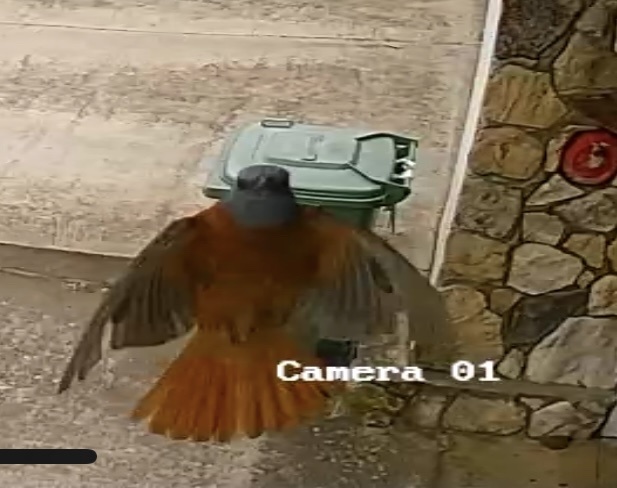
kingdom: Animalia
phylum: Chordata
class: Aves
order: Passeriformes
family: Muscicapidae
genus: Monticola
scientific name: Monticola rupestris
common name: Cape rock thrush
